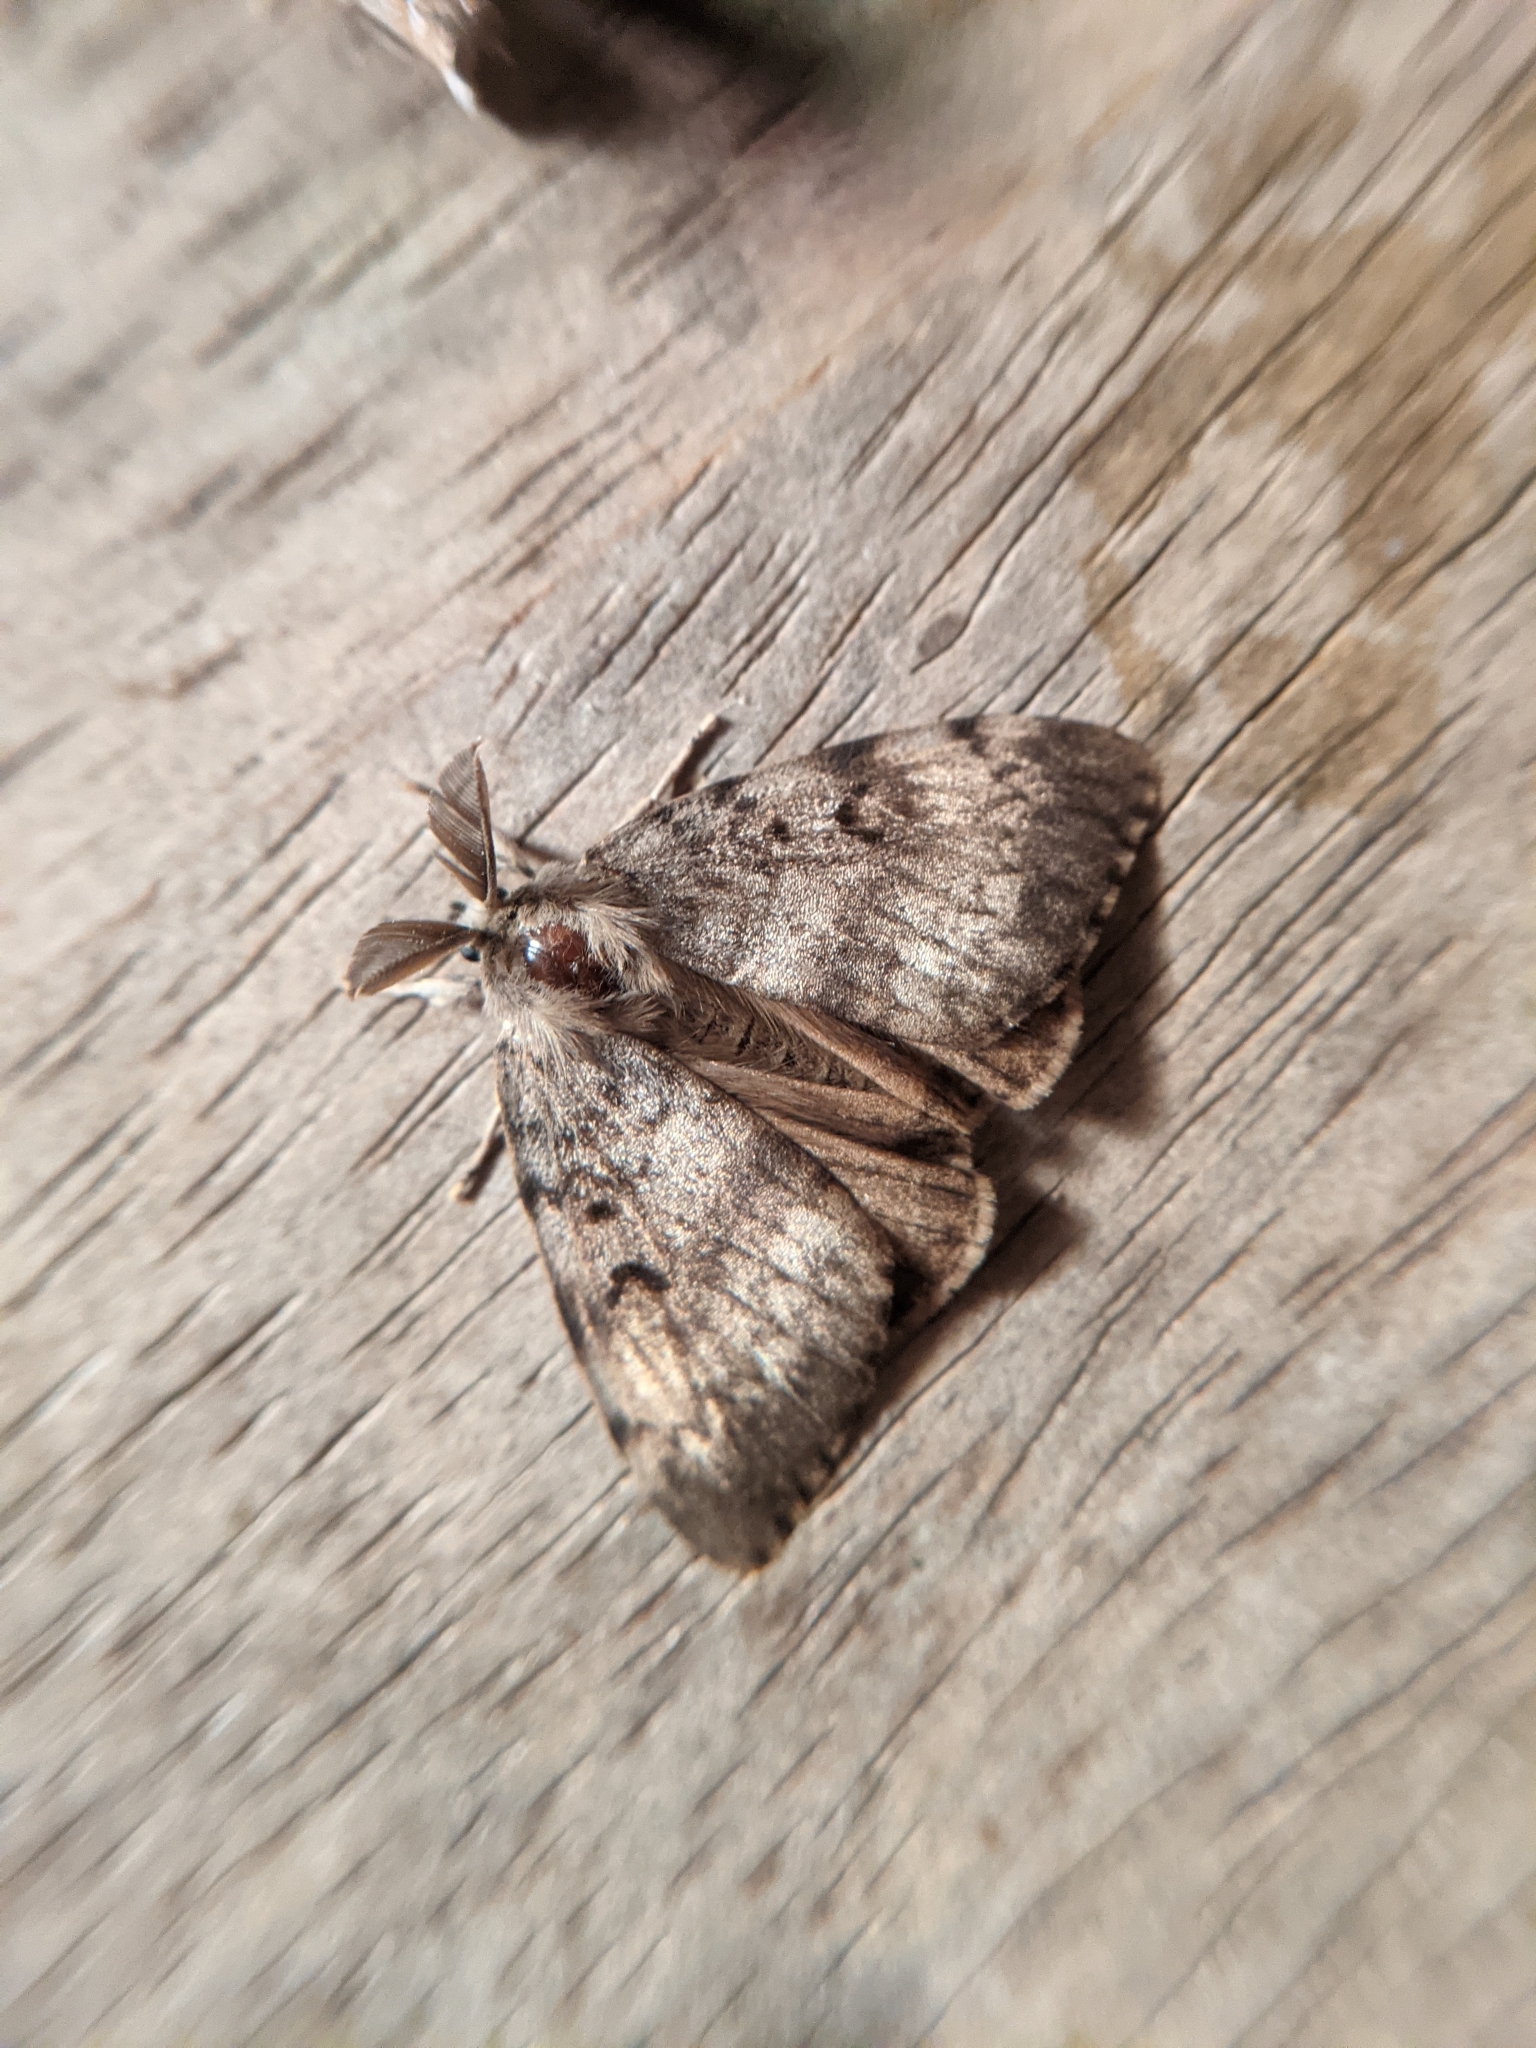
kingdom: Animalia
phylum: Arthropoda
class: Insecta
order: Lepidoptera
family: Erebidae
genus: Lymantria
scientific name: Lymantria dispar
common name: Gypsy moth
